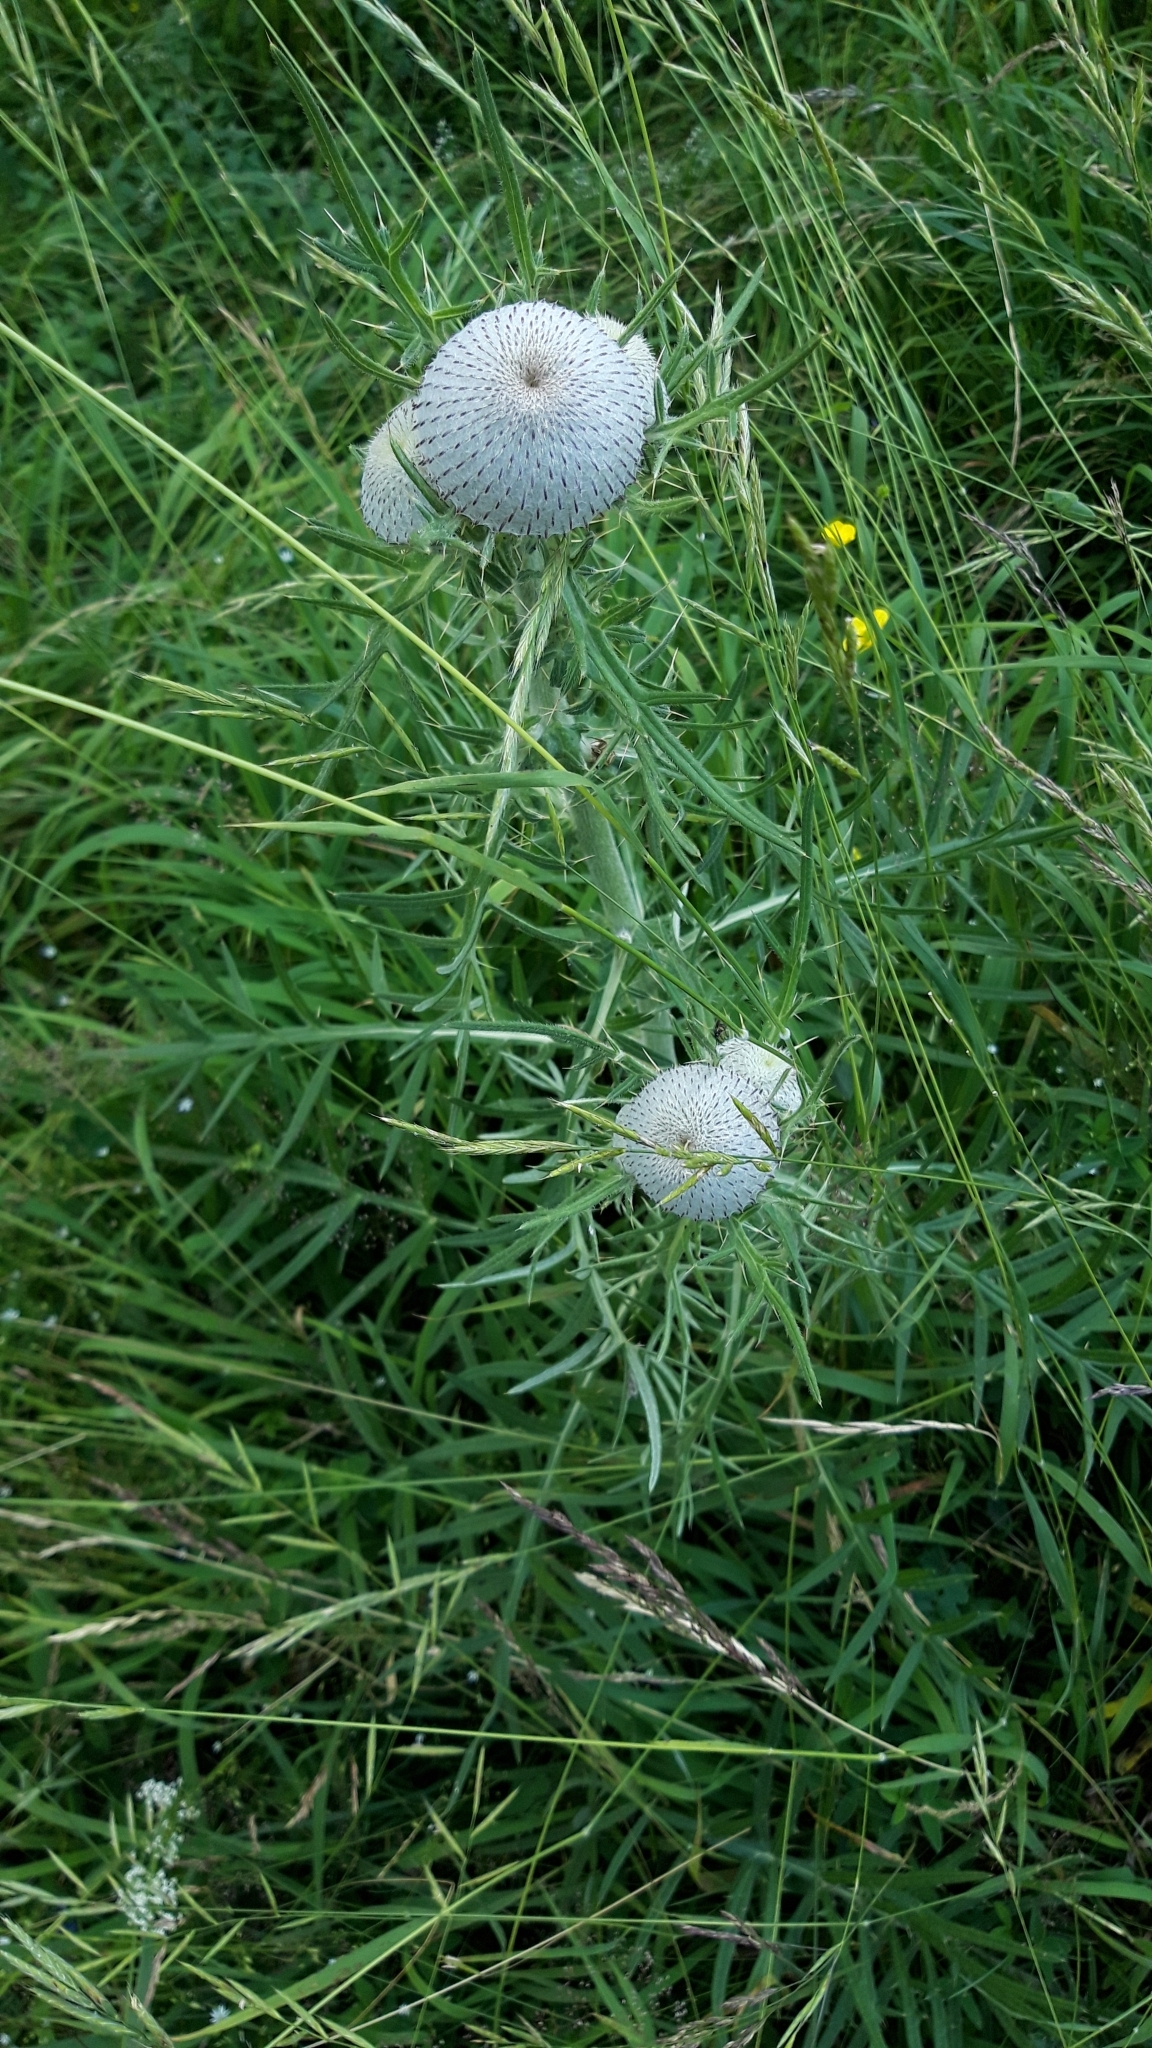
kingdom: Plantae
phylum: Tracheophyta
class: Magnoliopsida
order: Asterales
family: Asteraceae
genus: Lophiolepis
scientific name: Lophiolepis eriophora
